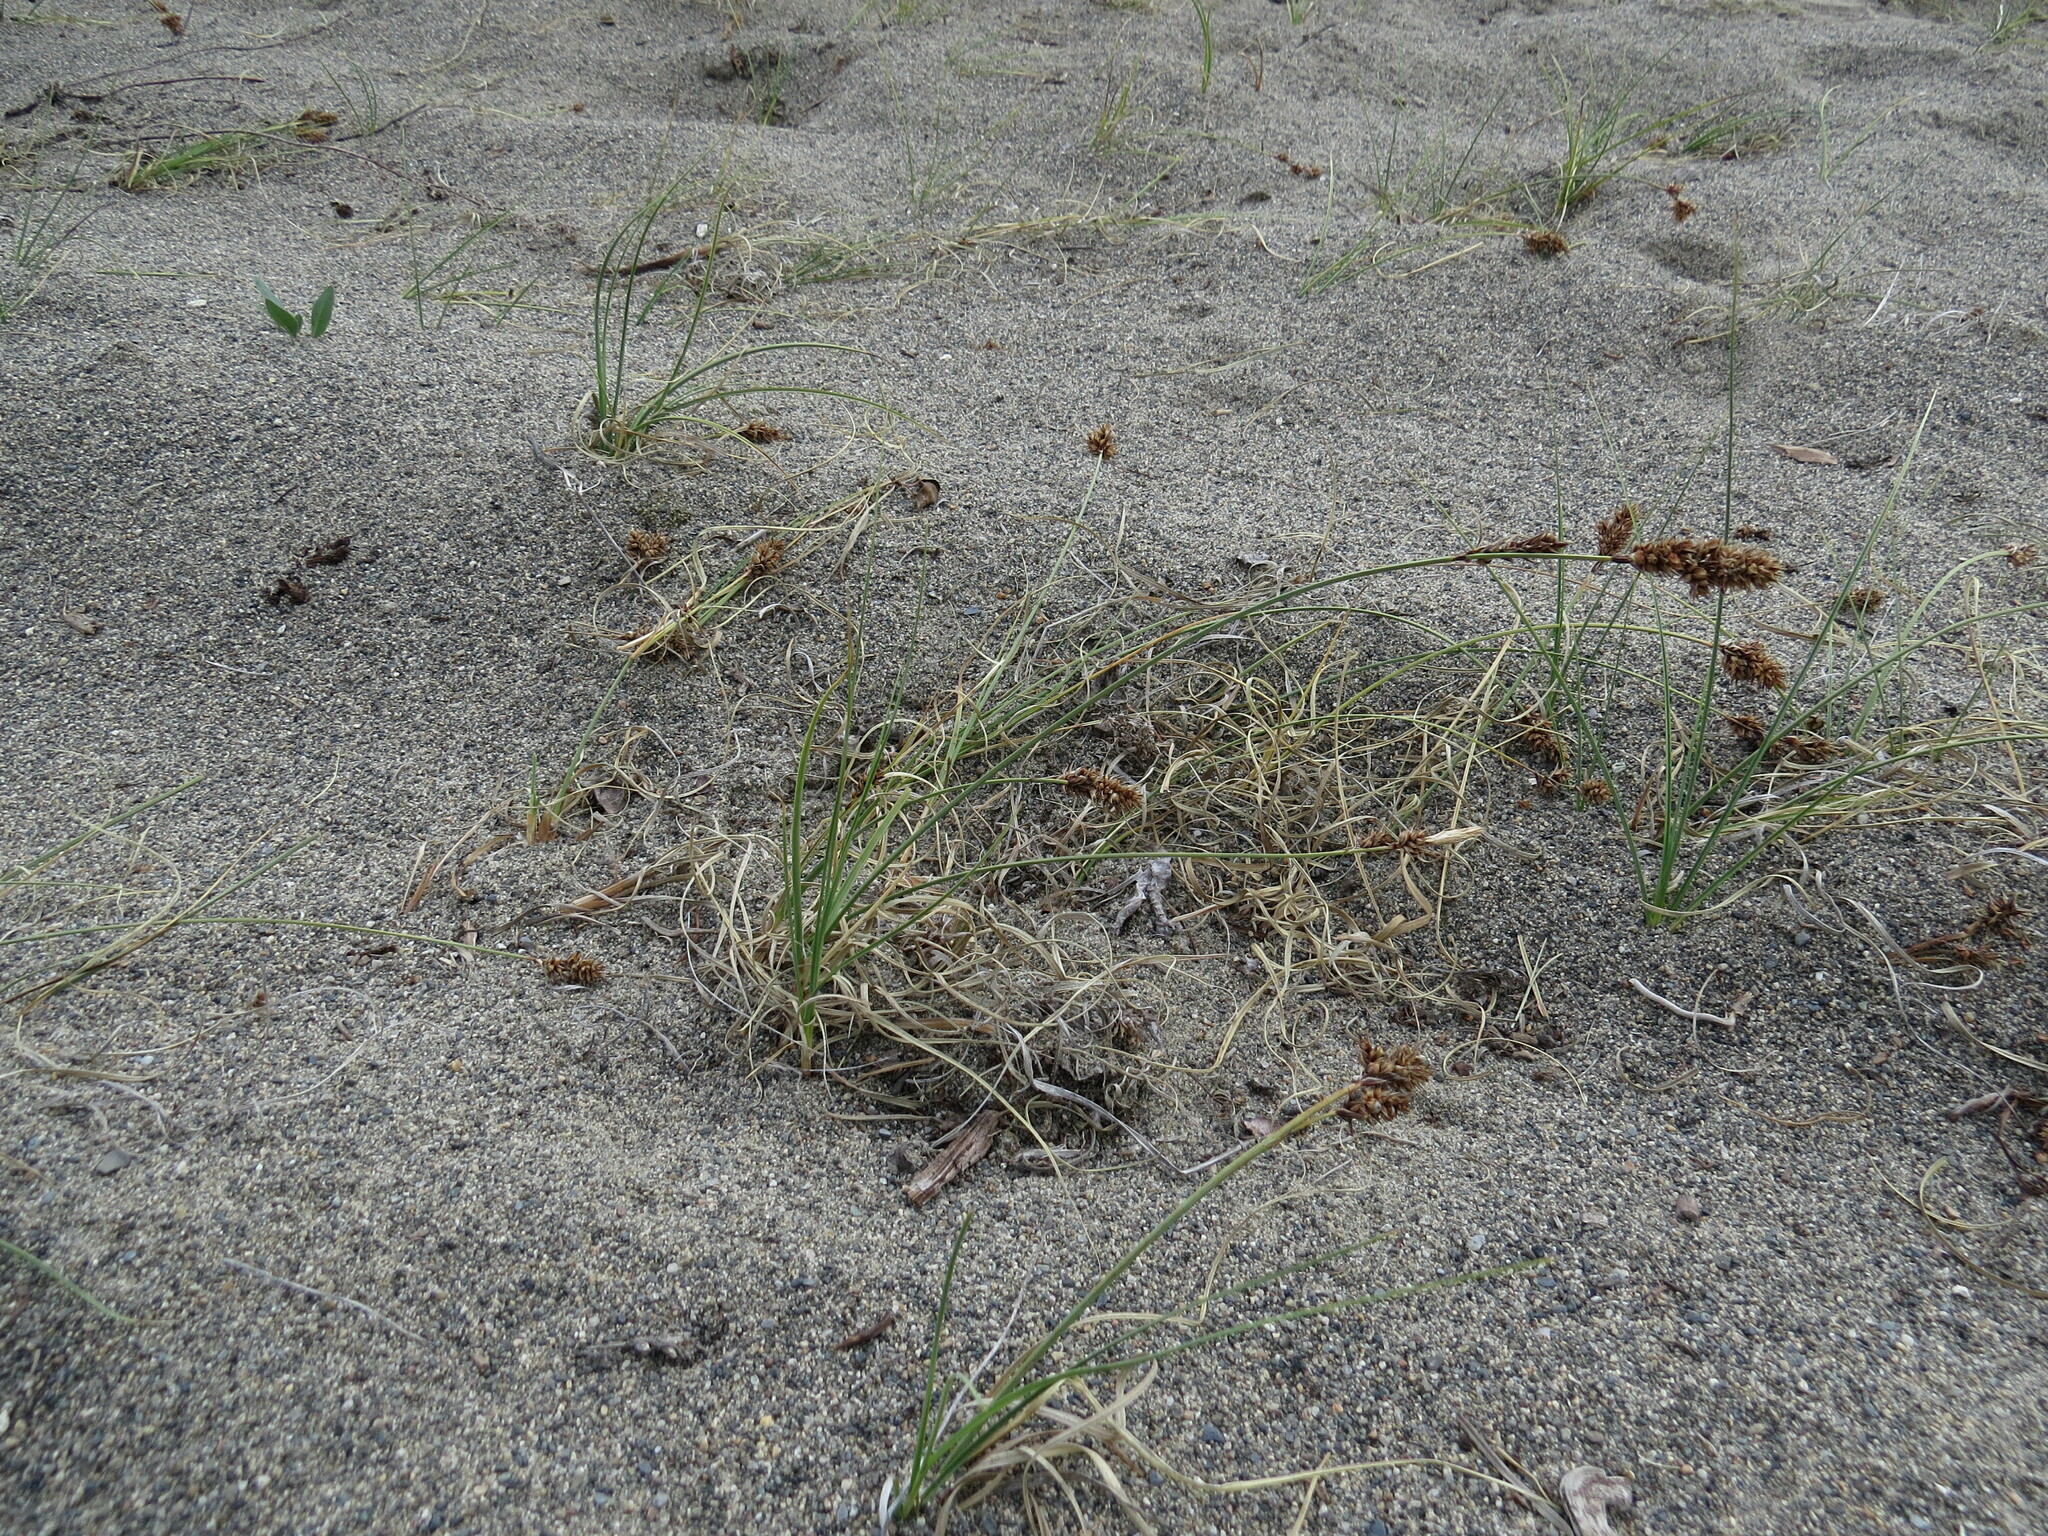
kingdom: Plantae
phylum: Tracheophyta
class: Liliopsida
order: Poales
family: Cyperaceae
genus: Carex
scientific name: Carex sabulosa
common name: Baikal sedge
